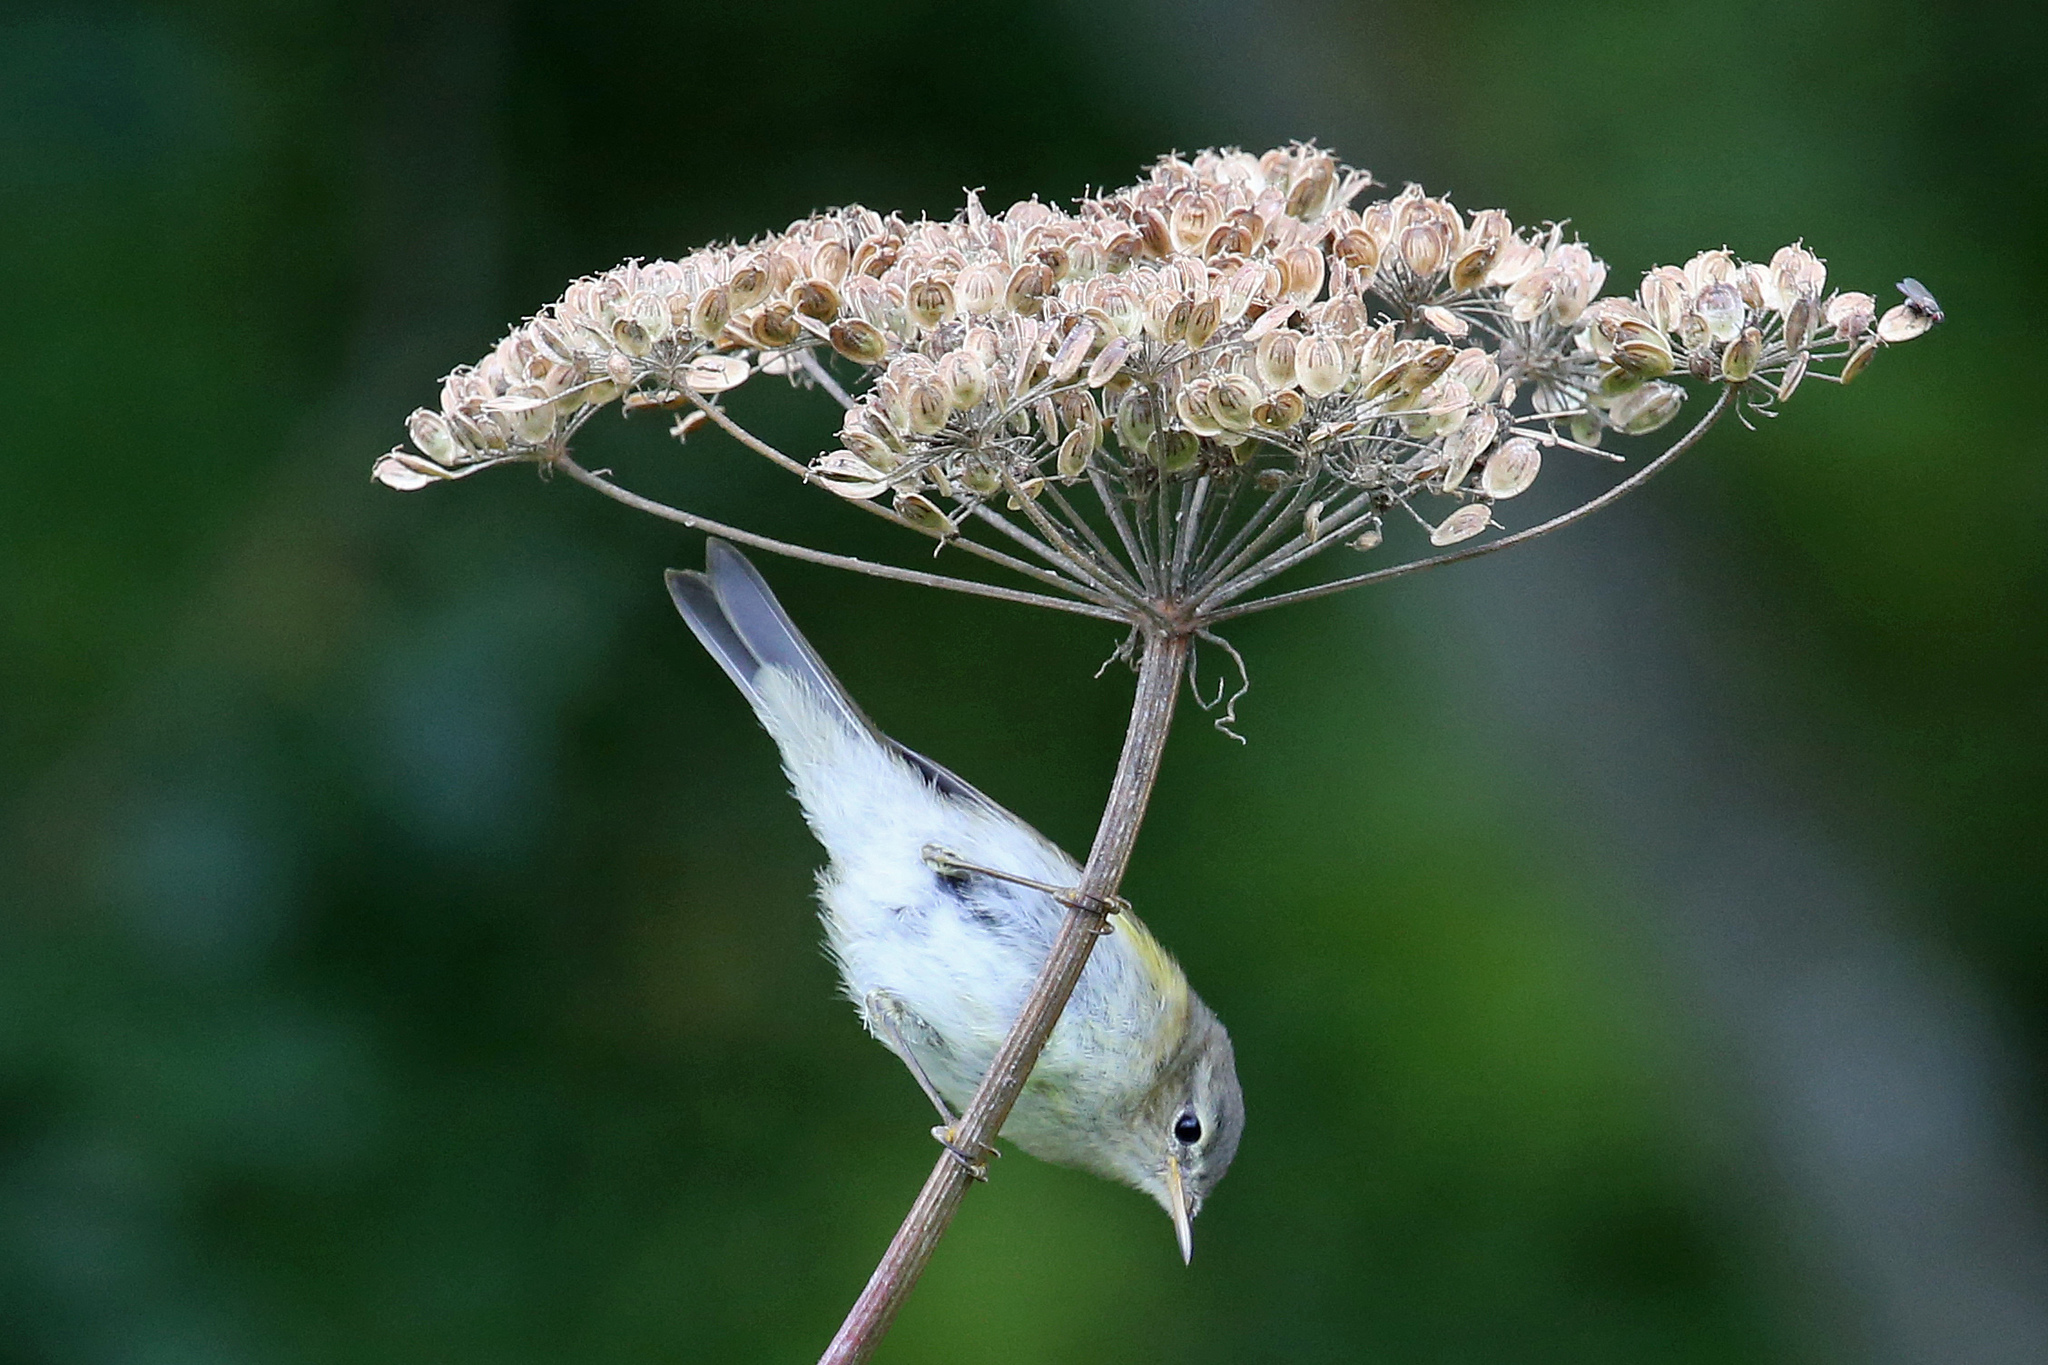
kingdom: Animalia
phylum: Chordata
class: Aves
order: Passeriformes
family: Phylloscopidae
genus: Phylloscopus
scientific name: Phylloscopus collybita
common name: Common chiffchaff
